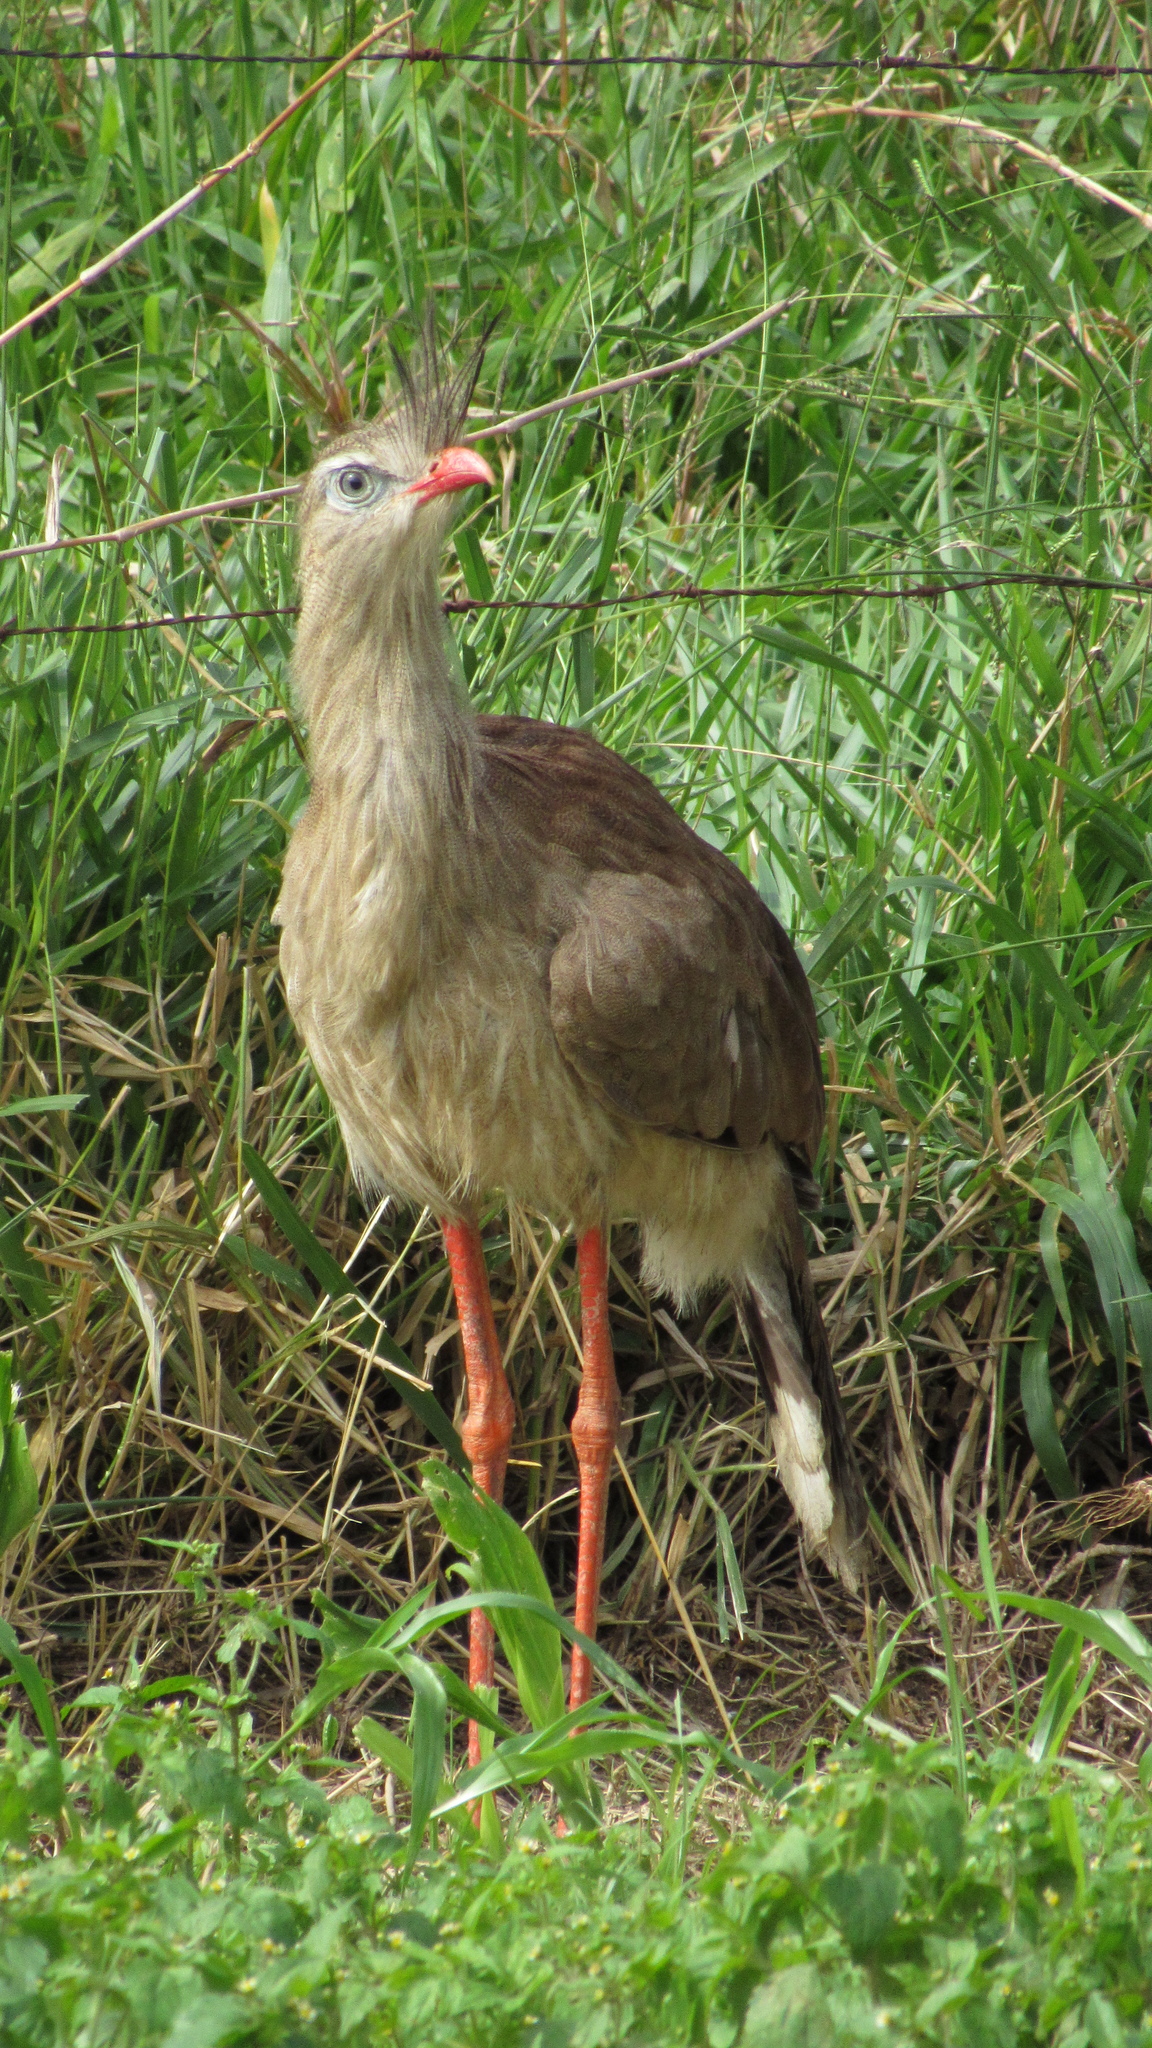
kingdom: Animalia
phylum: Chordata
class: Aves
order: Cariamiformes
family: Cariamidae
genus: Cariama
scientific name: Cariama cristata
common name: Red-legged seriema
